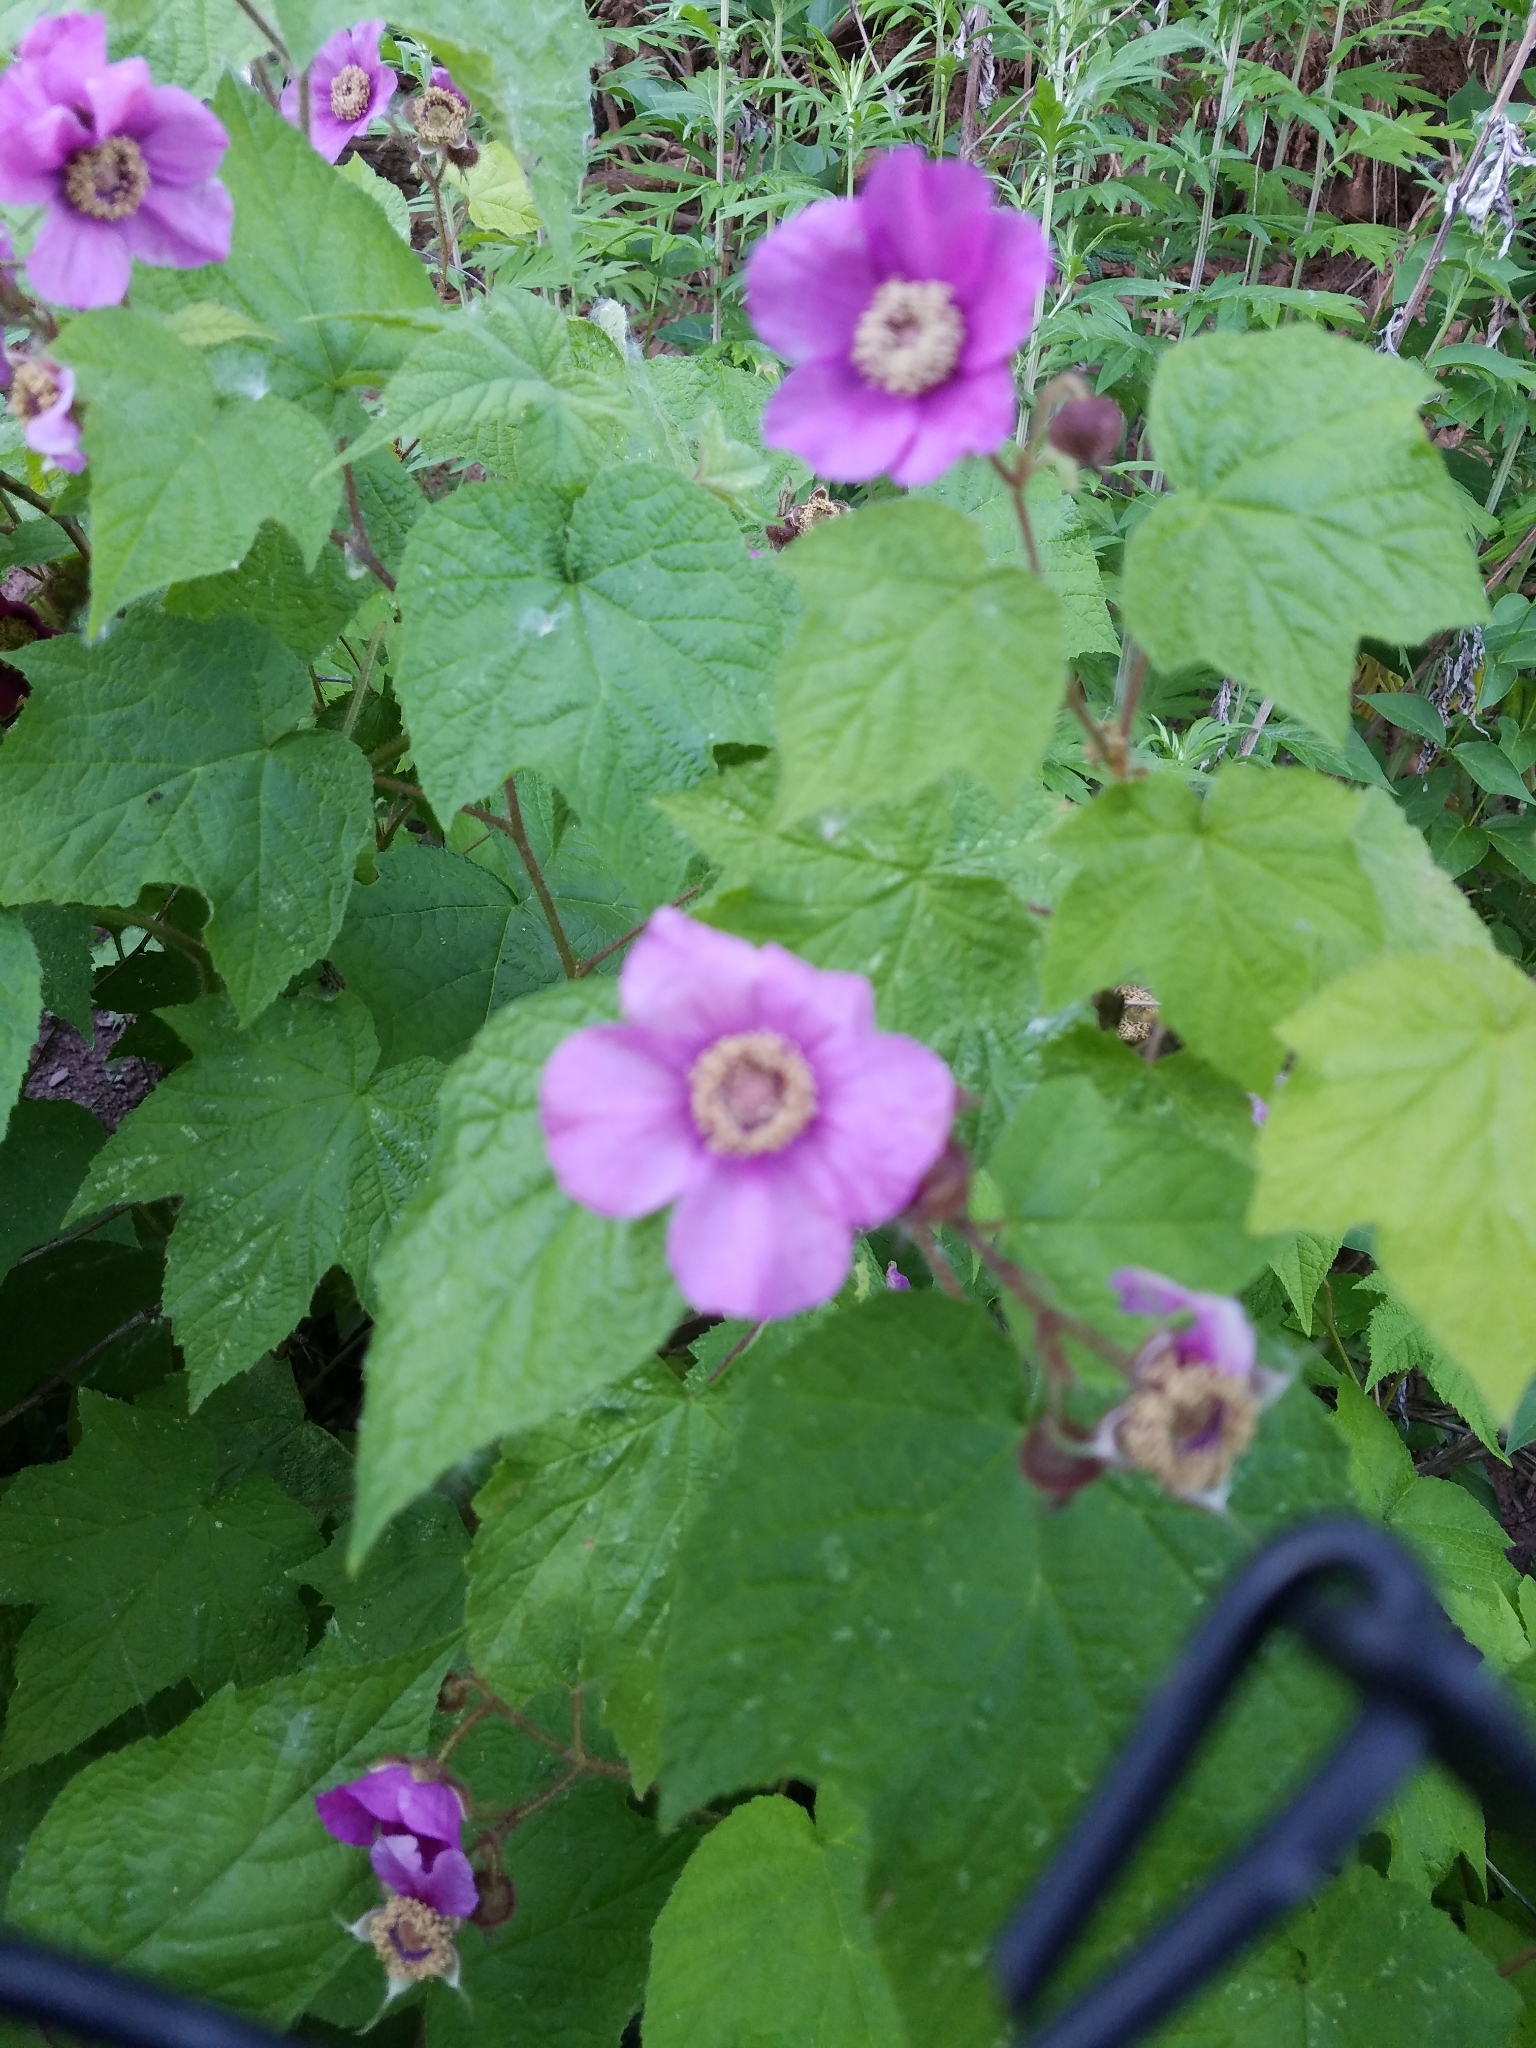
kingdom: Plantae
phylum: Tracheophyta
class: Magnoliopsida
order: Rosales
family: Rosaceae
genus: Rubus
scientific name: Rubus odoratus
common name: Purple-flowered raspberry
